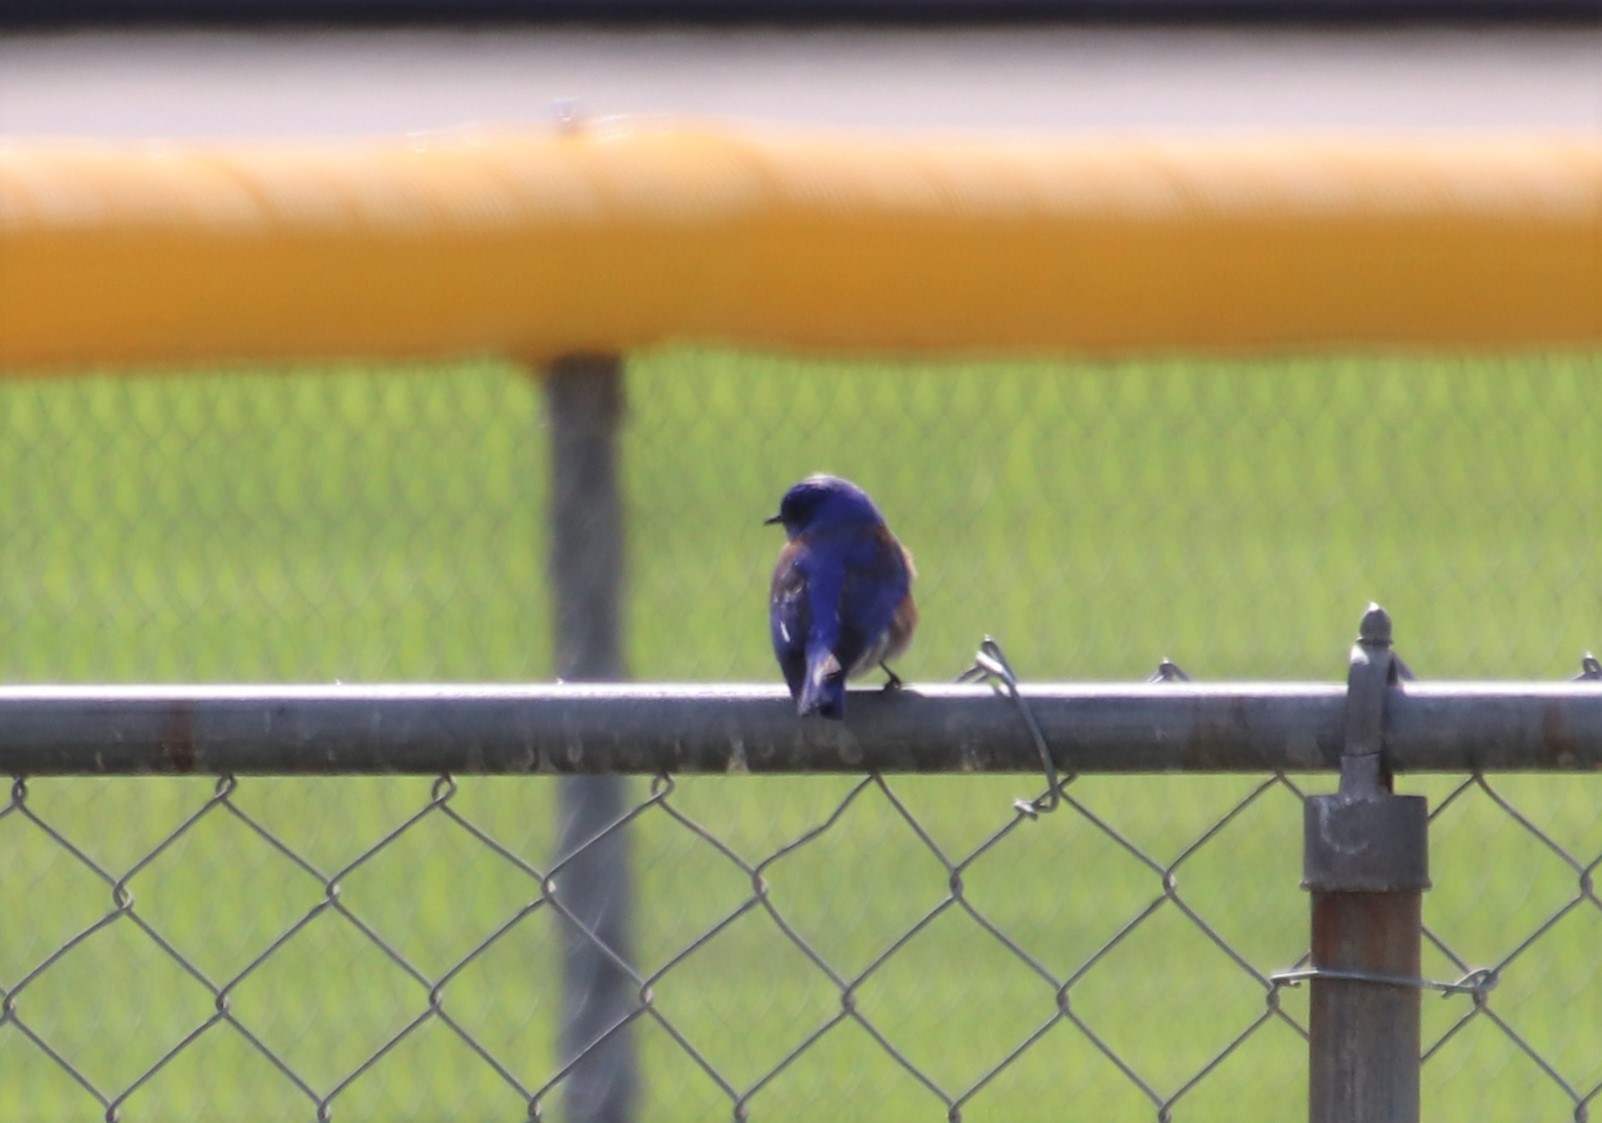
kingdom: Animalia
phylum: Chordata
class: Aves
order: Passeriformes
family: Turdidae
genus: Sialia
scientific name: Sialia mexicana
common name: Western bluebird
